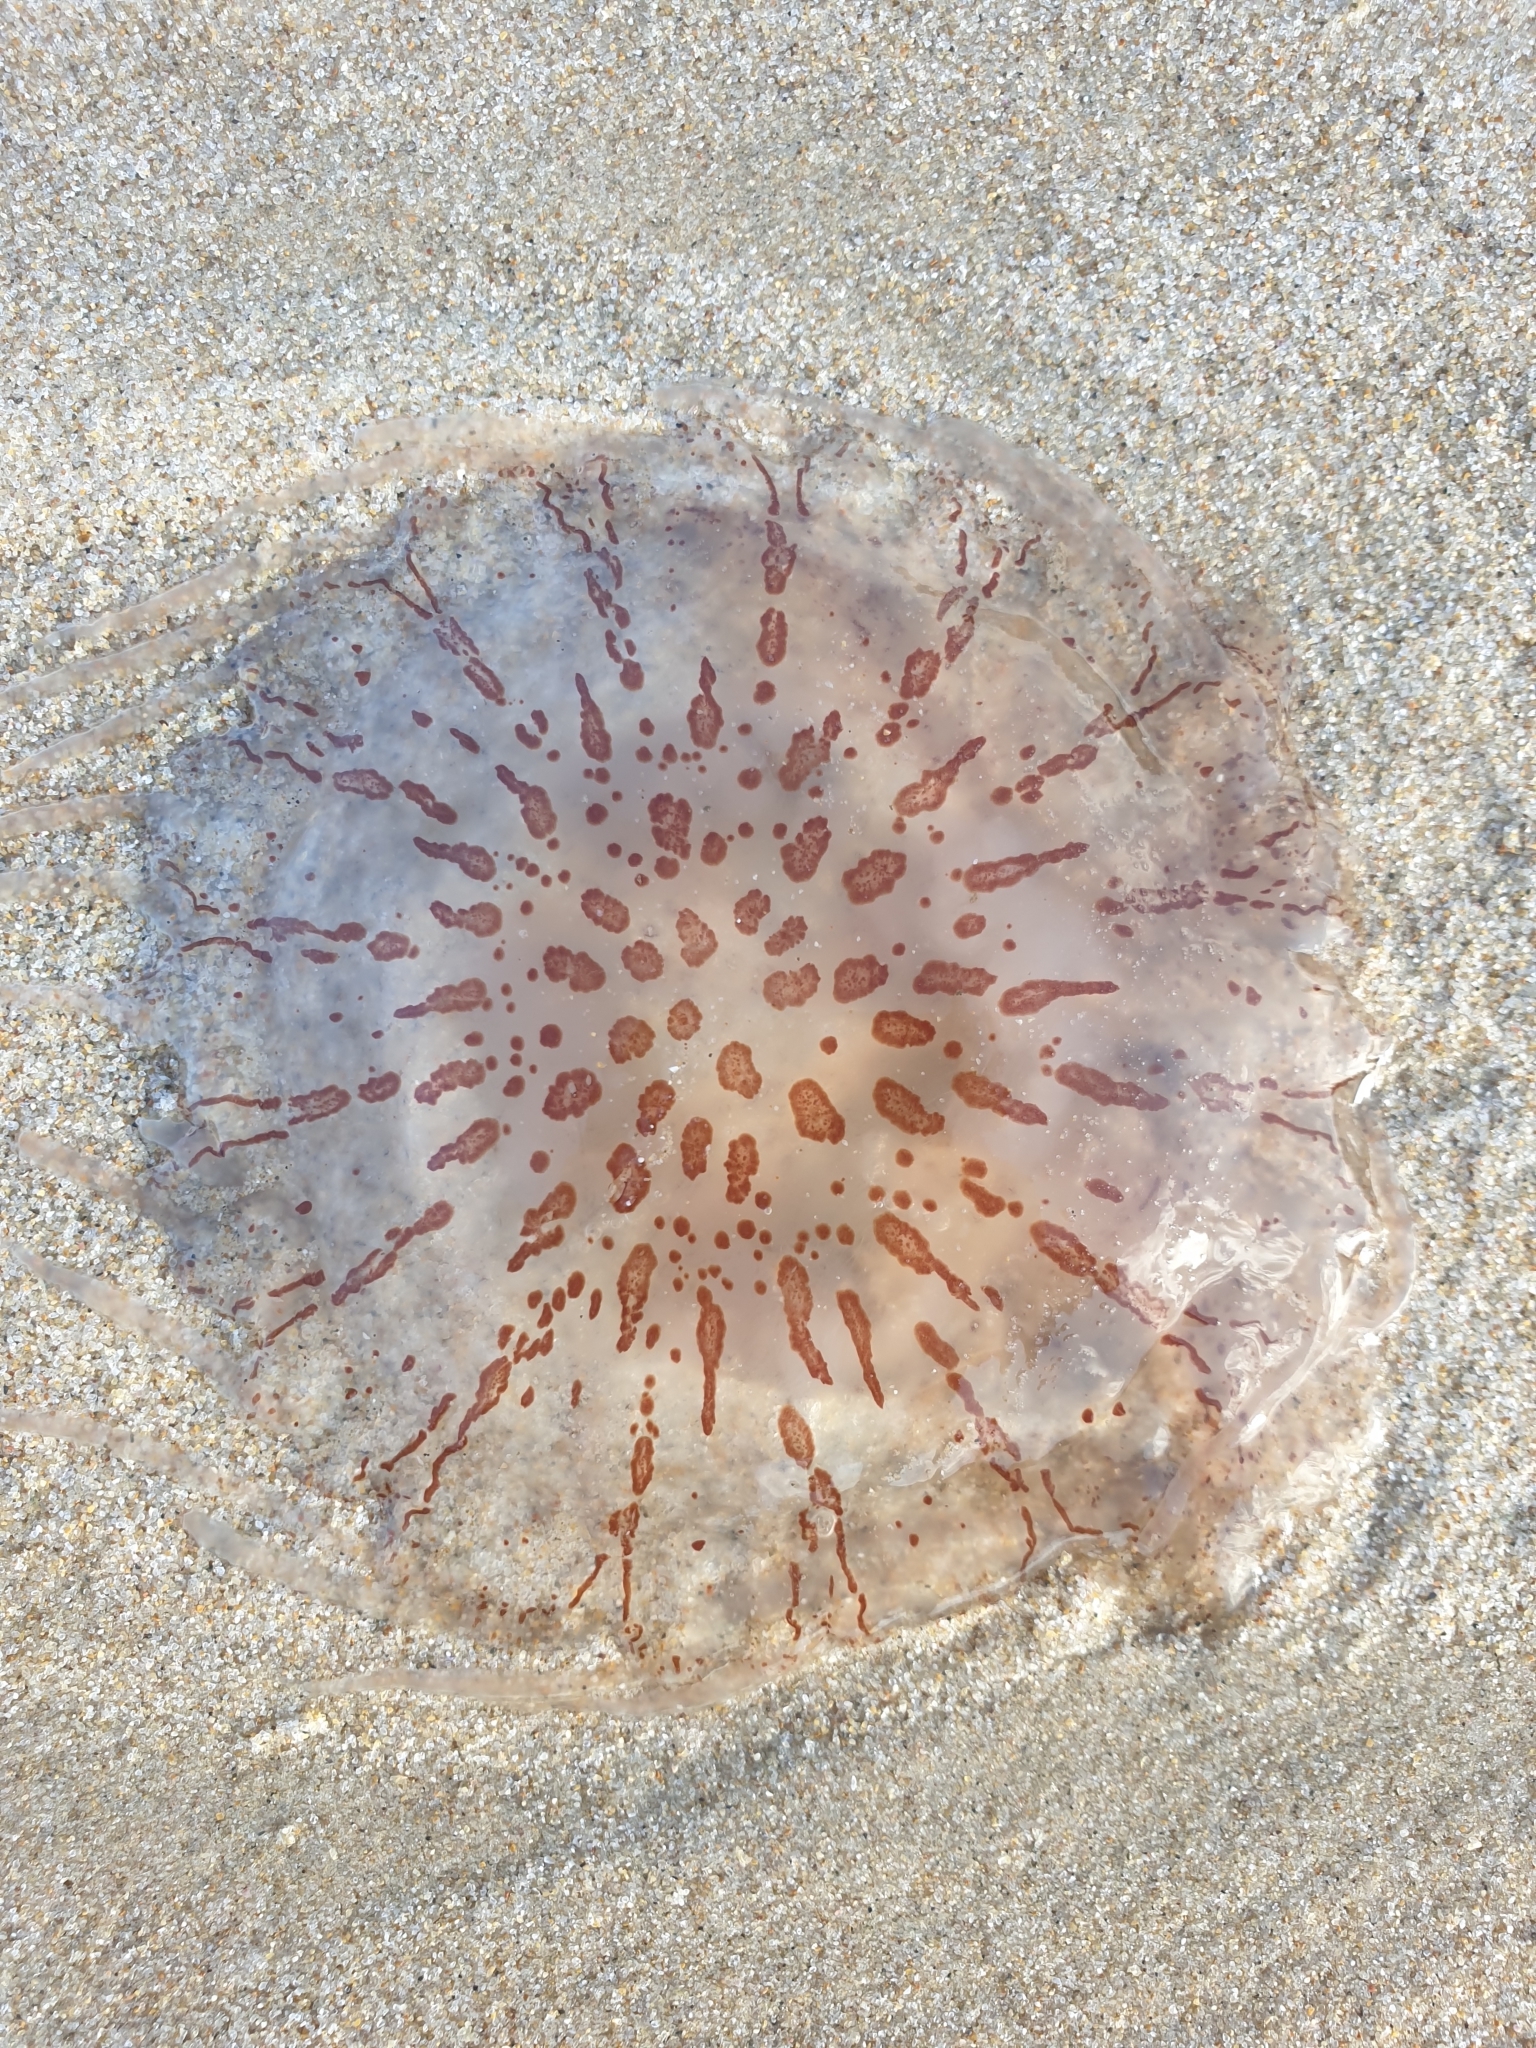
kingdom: Animalia
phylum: Cnidaria
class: Scyphozoa
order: Semaeostomeae
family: Pelagiidae
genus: Chrysaora
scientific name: Chrysaora pentastoma
